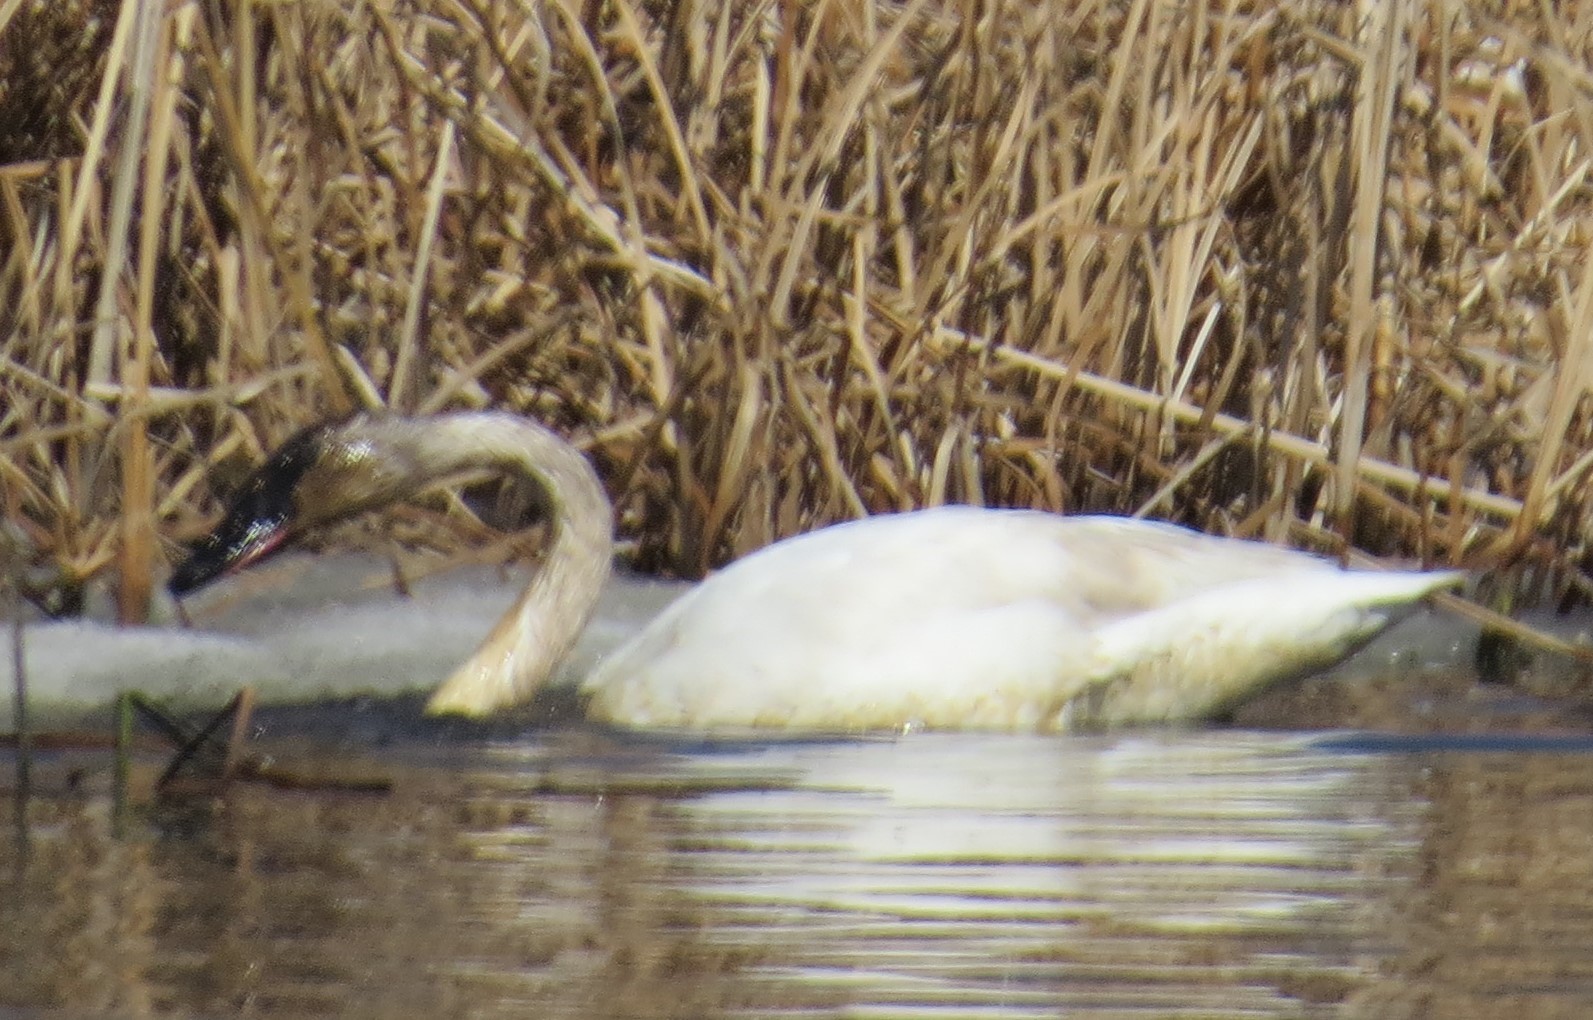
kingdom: Animalia
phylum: Chordata
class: Aves
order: Anseriformes
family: Anatidae
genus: Cygnus
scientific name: Cygnus buccinator
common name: Trumpeter swan
